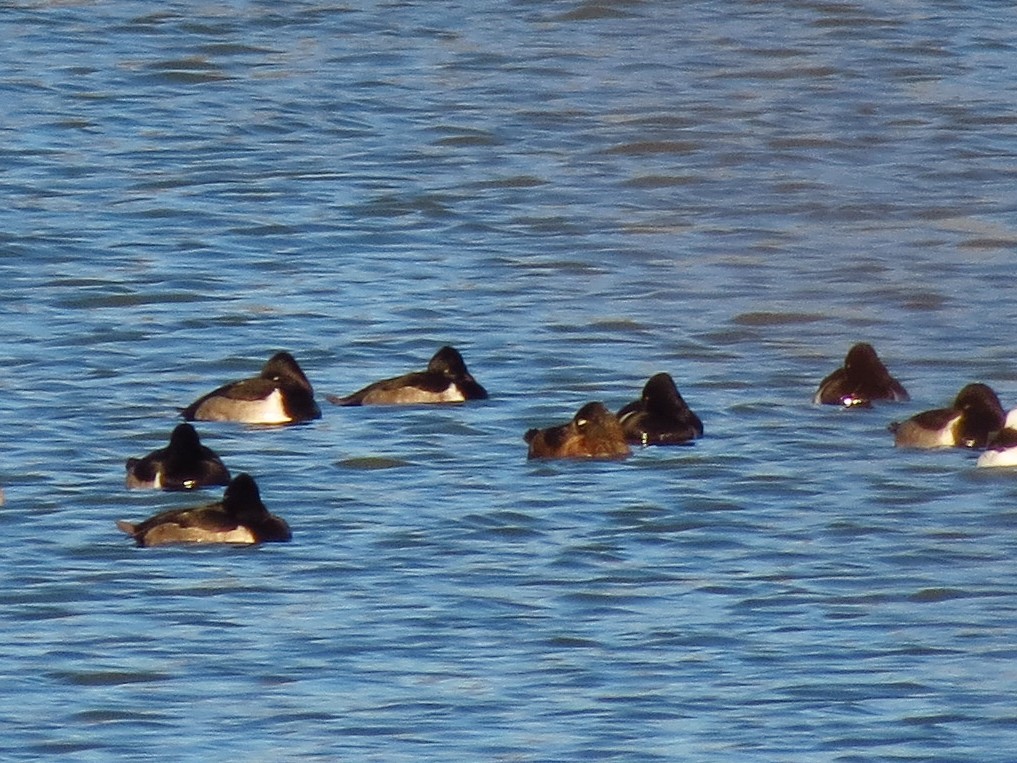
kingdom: Animalia
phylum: Chordata
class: Aves
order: Anseriformes
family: Anatidae
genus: Aythya
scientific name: Aythya collaris
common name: Ring-necked duck
